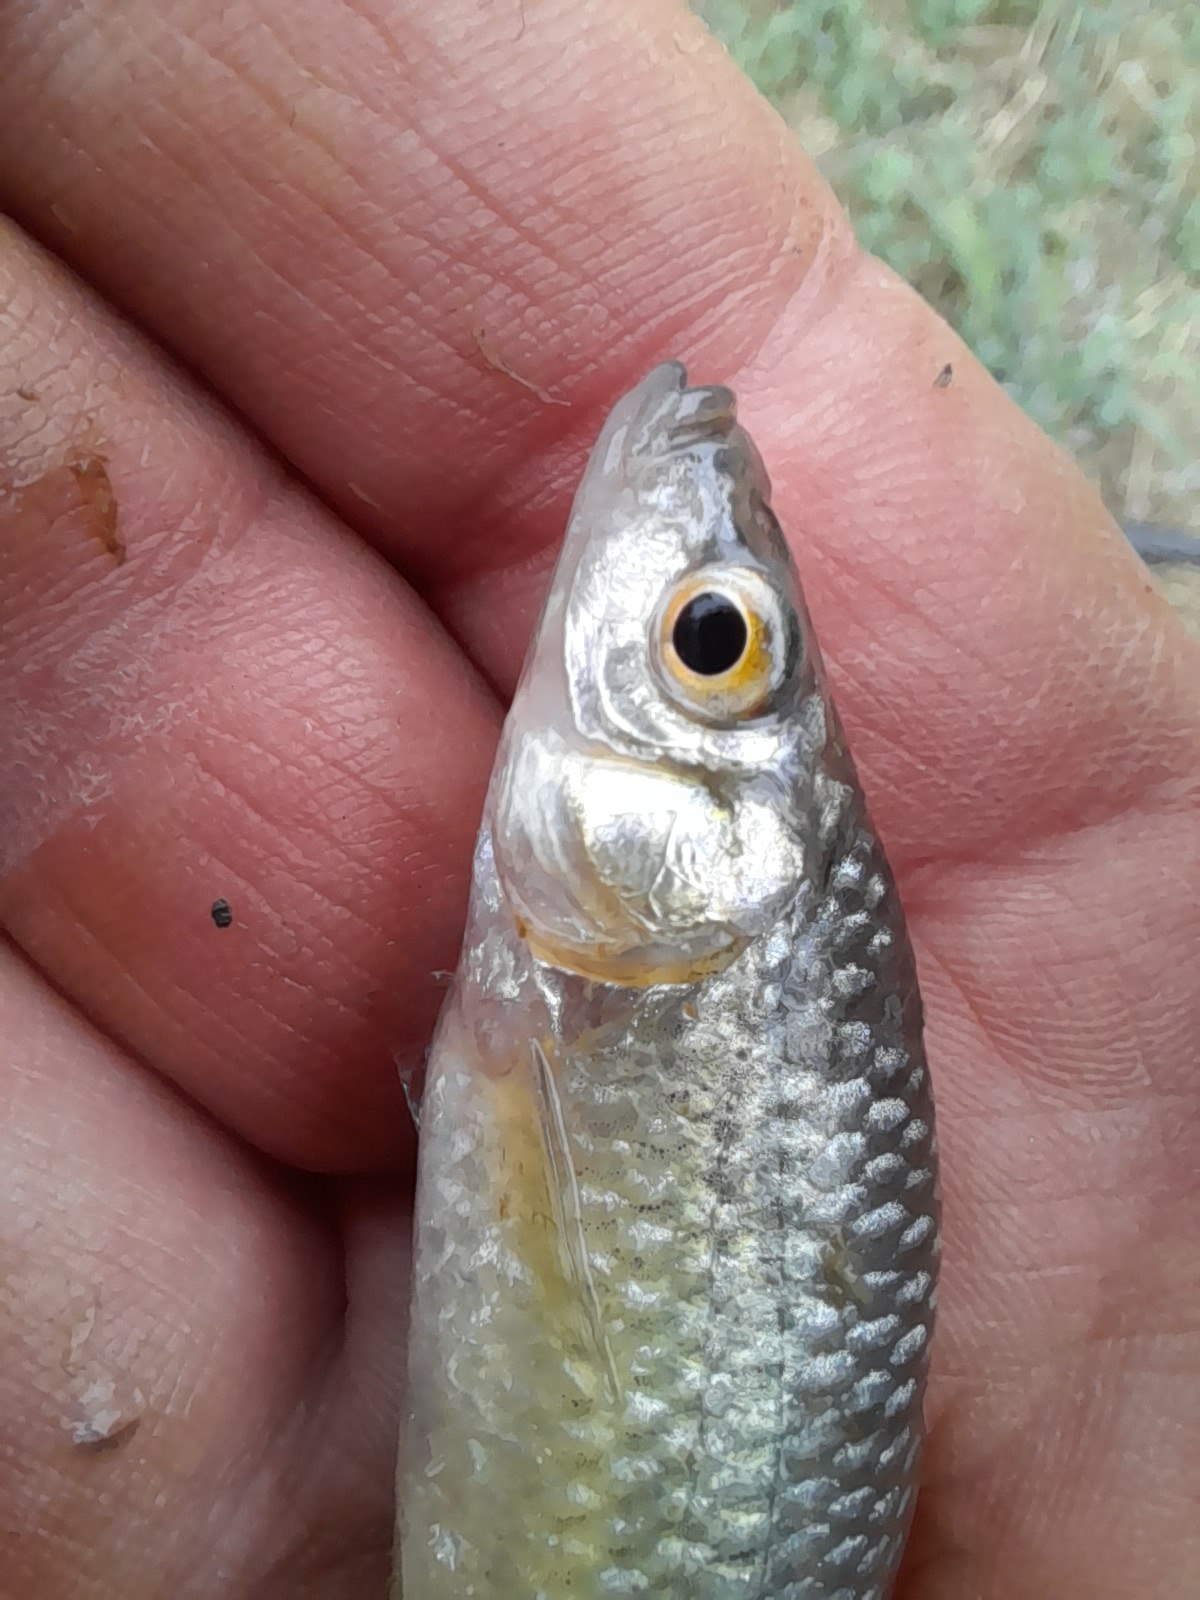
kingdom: Animalia
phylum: Chordata
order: Cypriniformes
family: Cyprinidae
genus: Pseudorasbora
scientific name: Pseudorasbora parva
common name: Topmouth gudgeon
